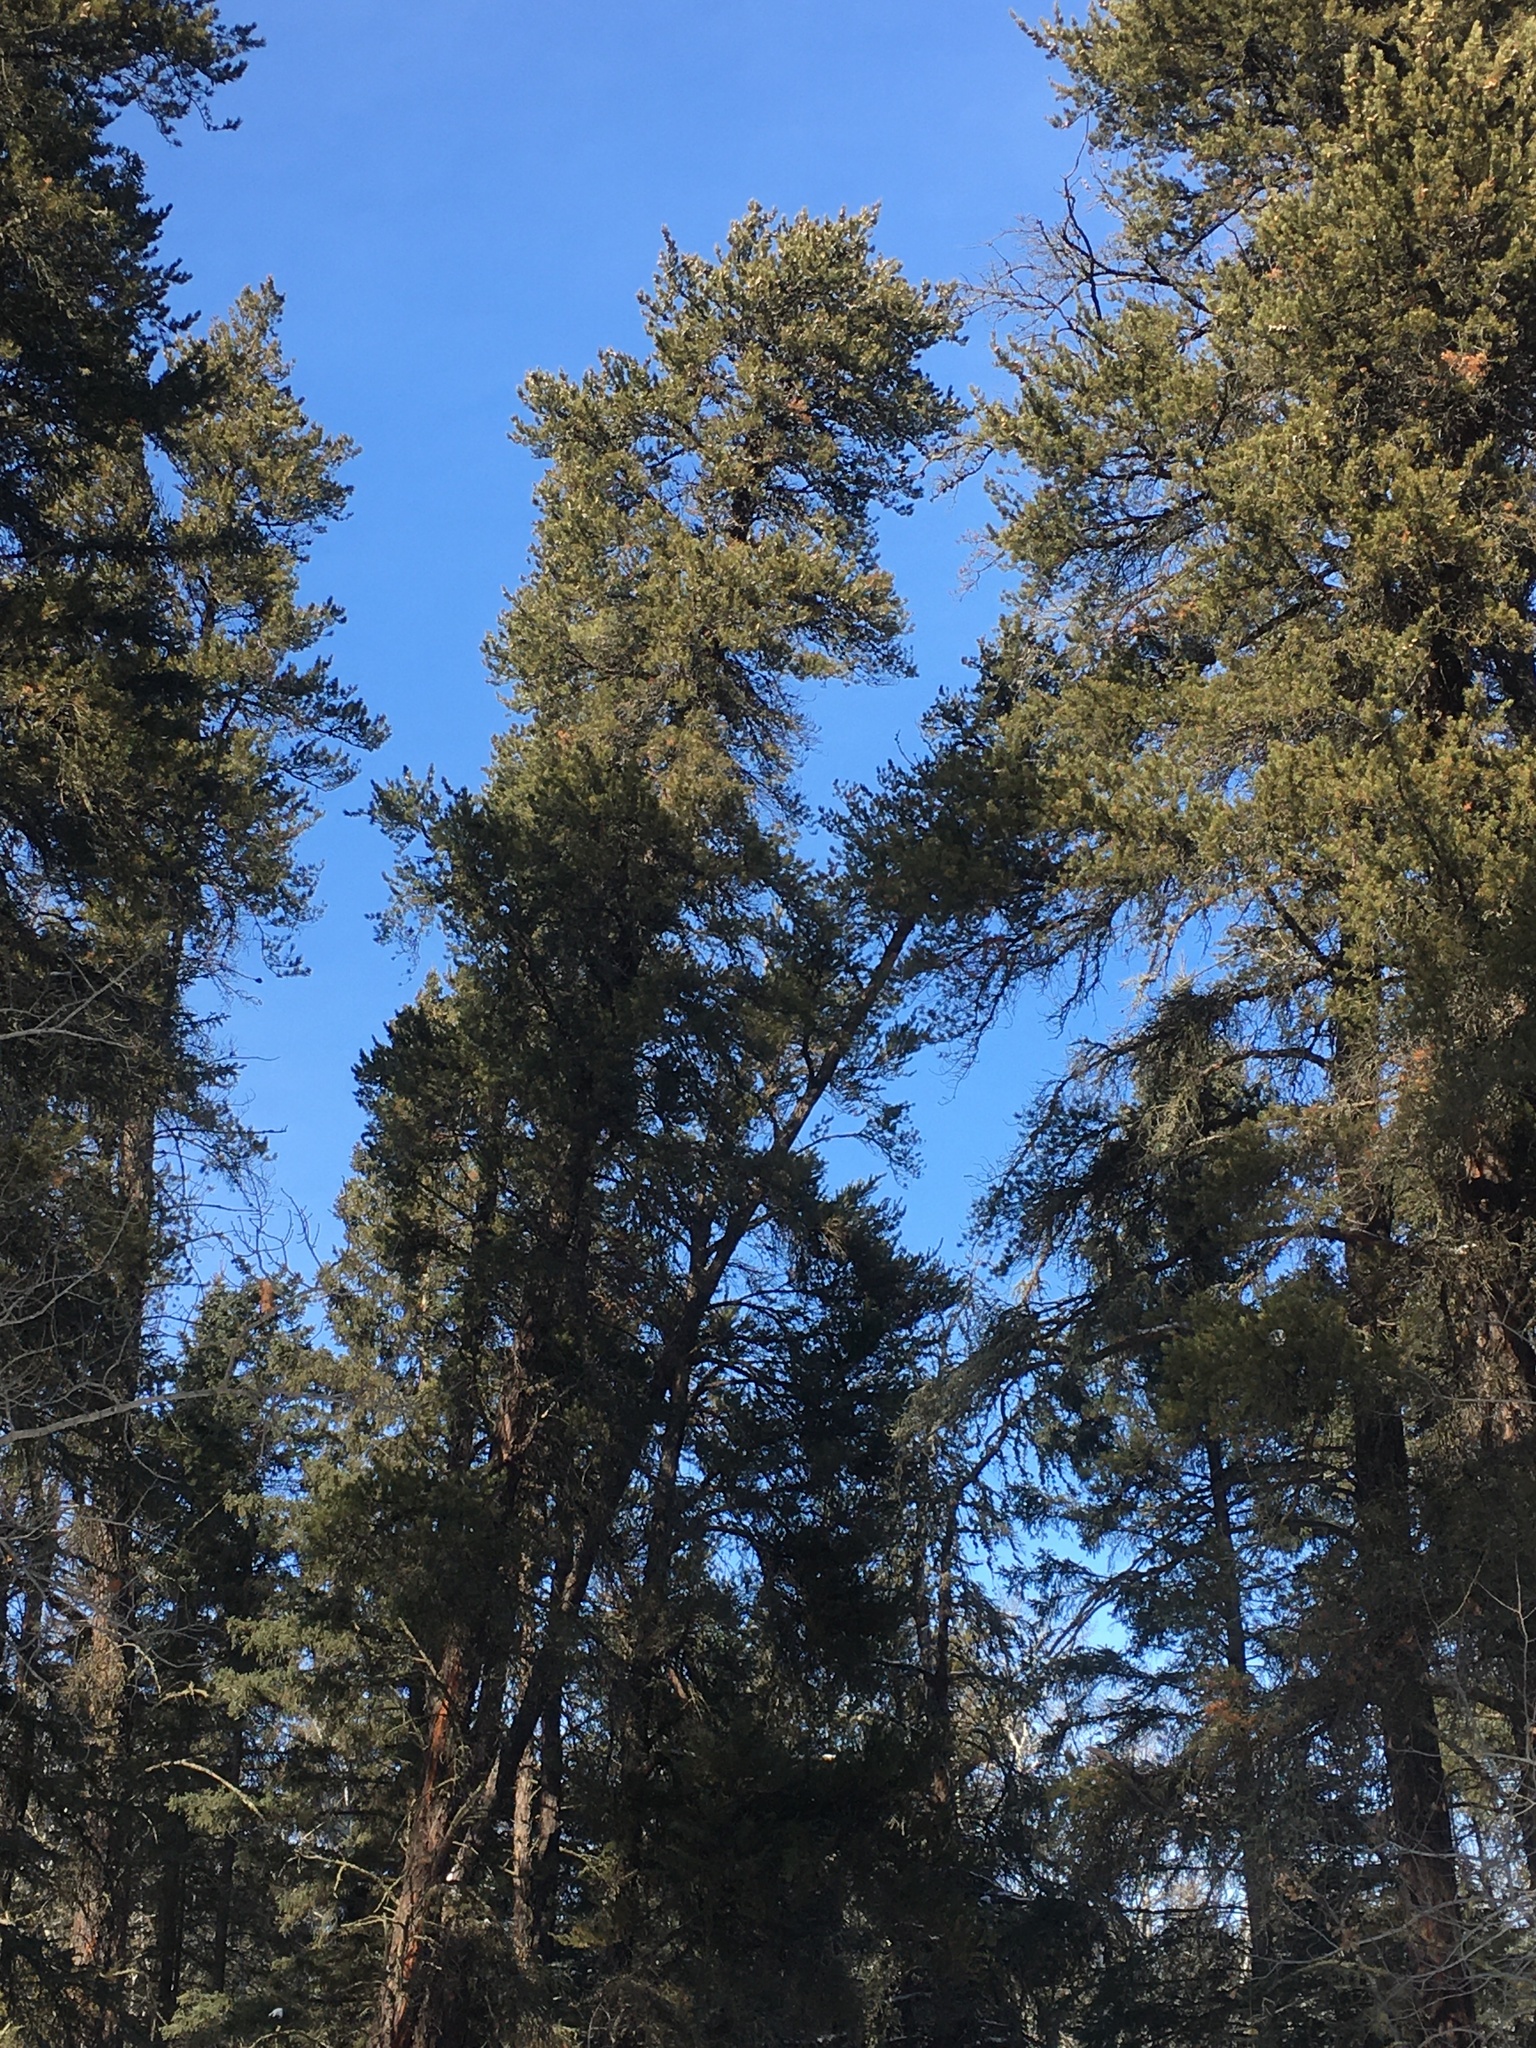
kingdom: Plantae
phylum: Tracheophyta
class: Pinopsida
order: Pinales
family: Pinaceae
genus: Pinus
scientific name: Pinus banksiana
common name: Jack pine
